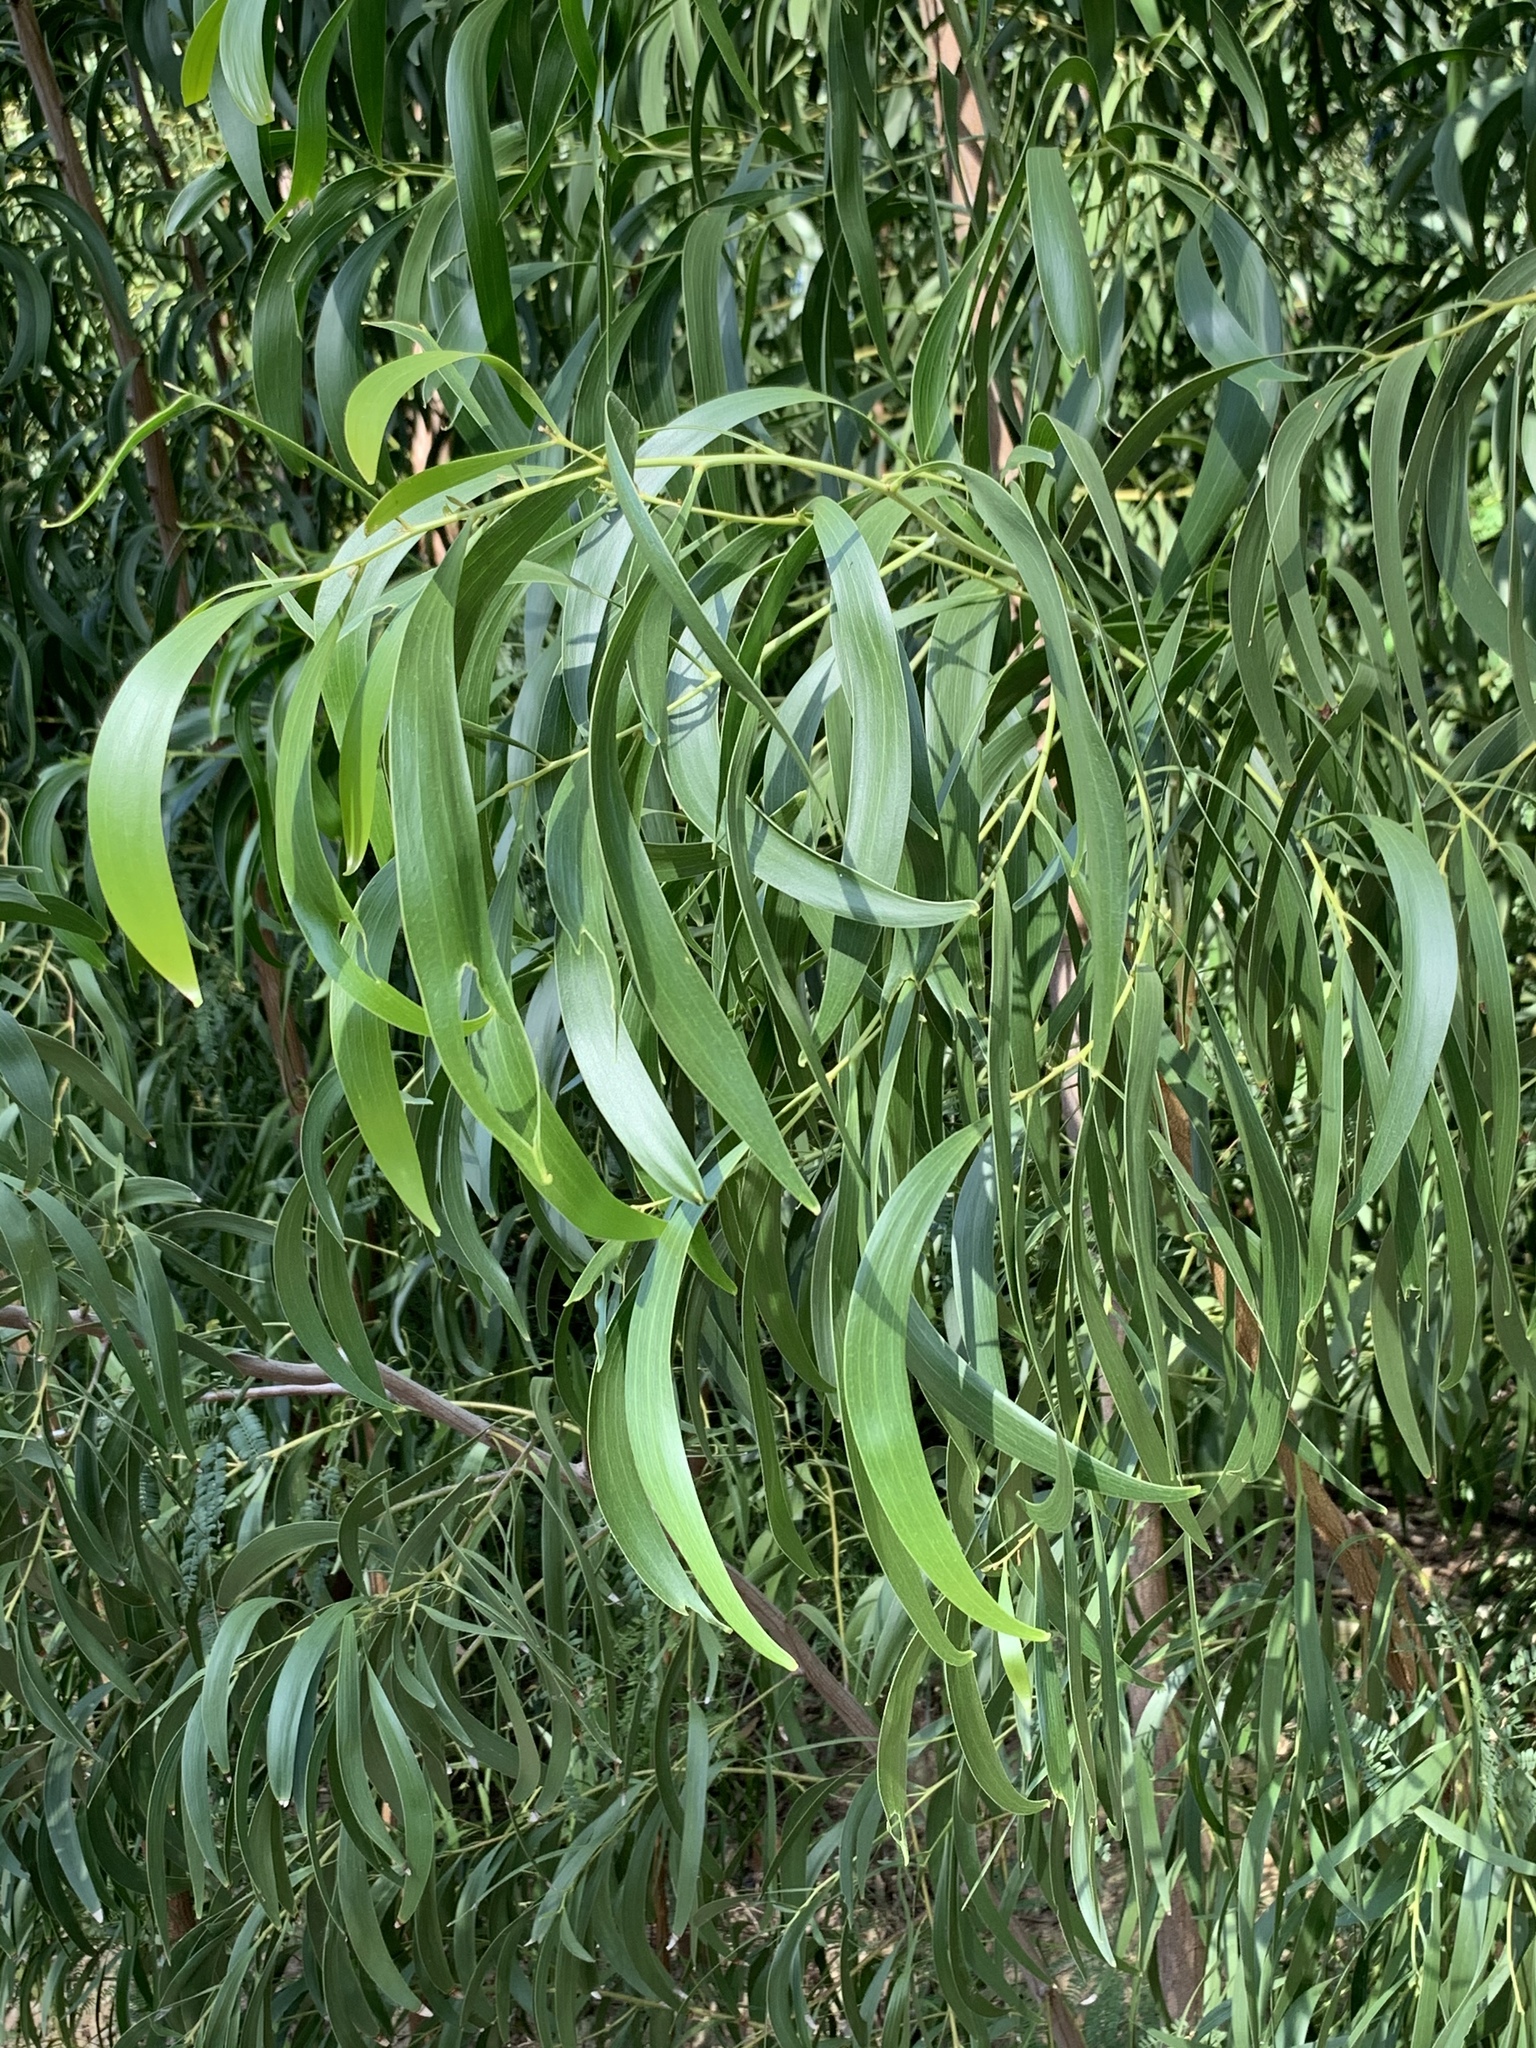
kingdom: Plantae
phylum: Tracheophyta
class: Magnoliopsida
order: Fabales
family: Fabaceae
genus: Acacia
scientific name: Acacia implexa
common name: Black wattle
